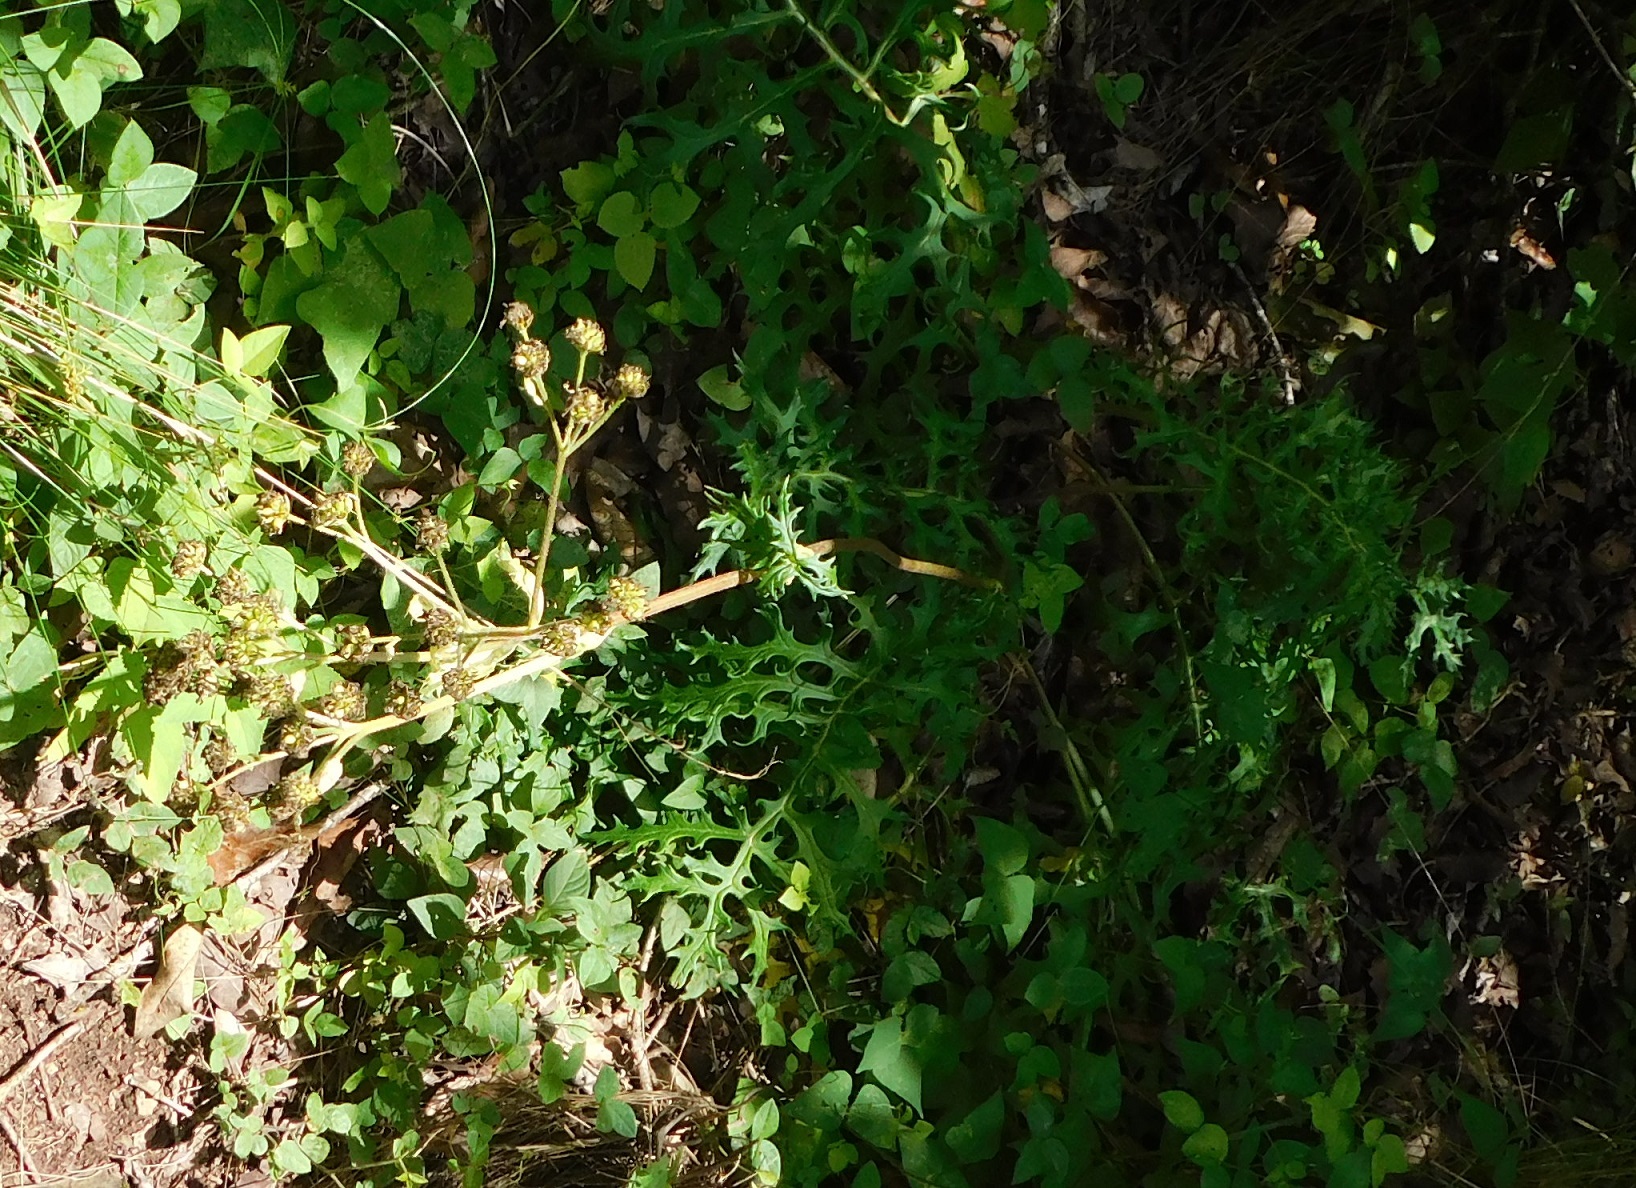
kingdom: Plantae
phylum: Tracheophyta
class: Magnoliopsida
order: Asterales
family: Asteraceae
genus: Psacalium
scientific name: Psacalium cirsiifolium
